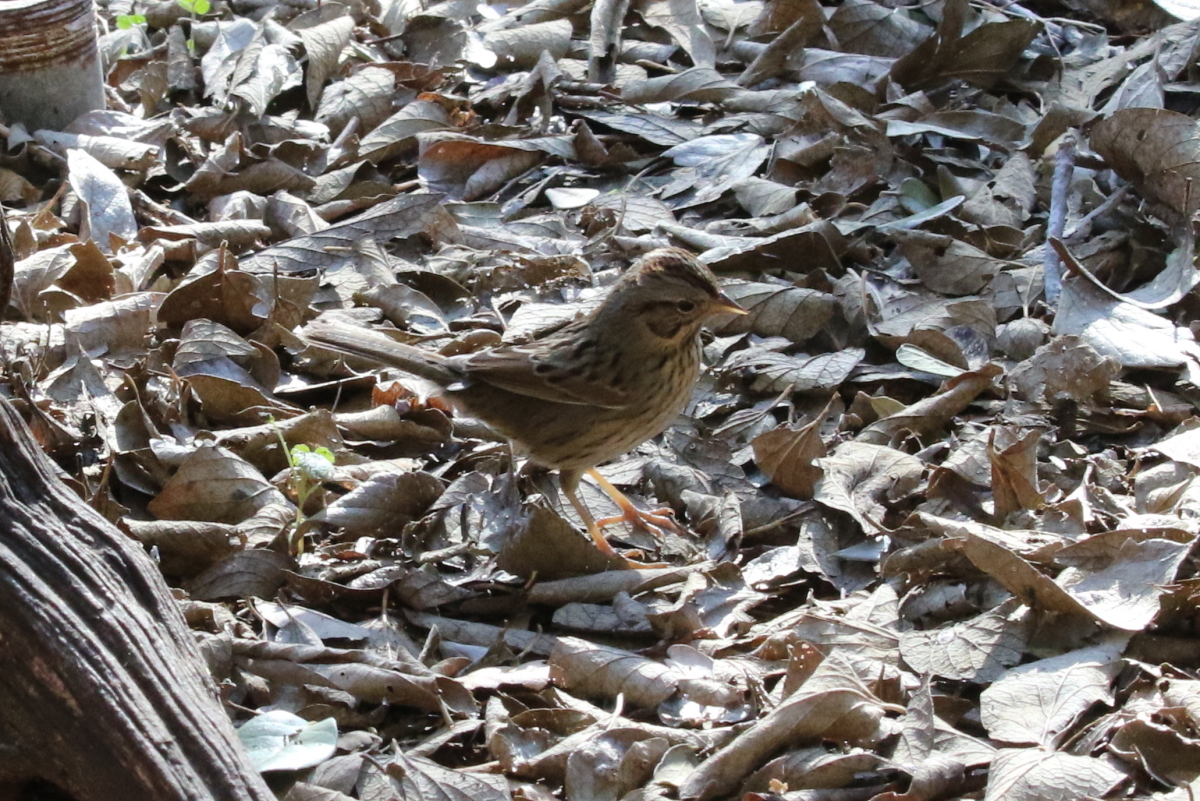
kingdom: Animalia
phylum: Chordata
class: Aves
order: Passeriformes
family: Passerellidae
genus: Melospiza
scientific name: Melospiza lincolnii
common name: Lincoln's sparrow
